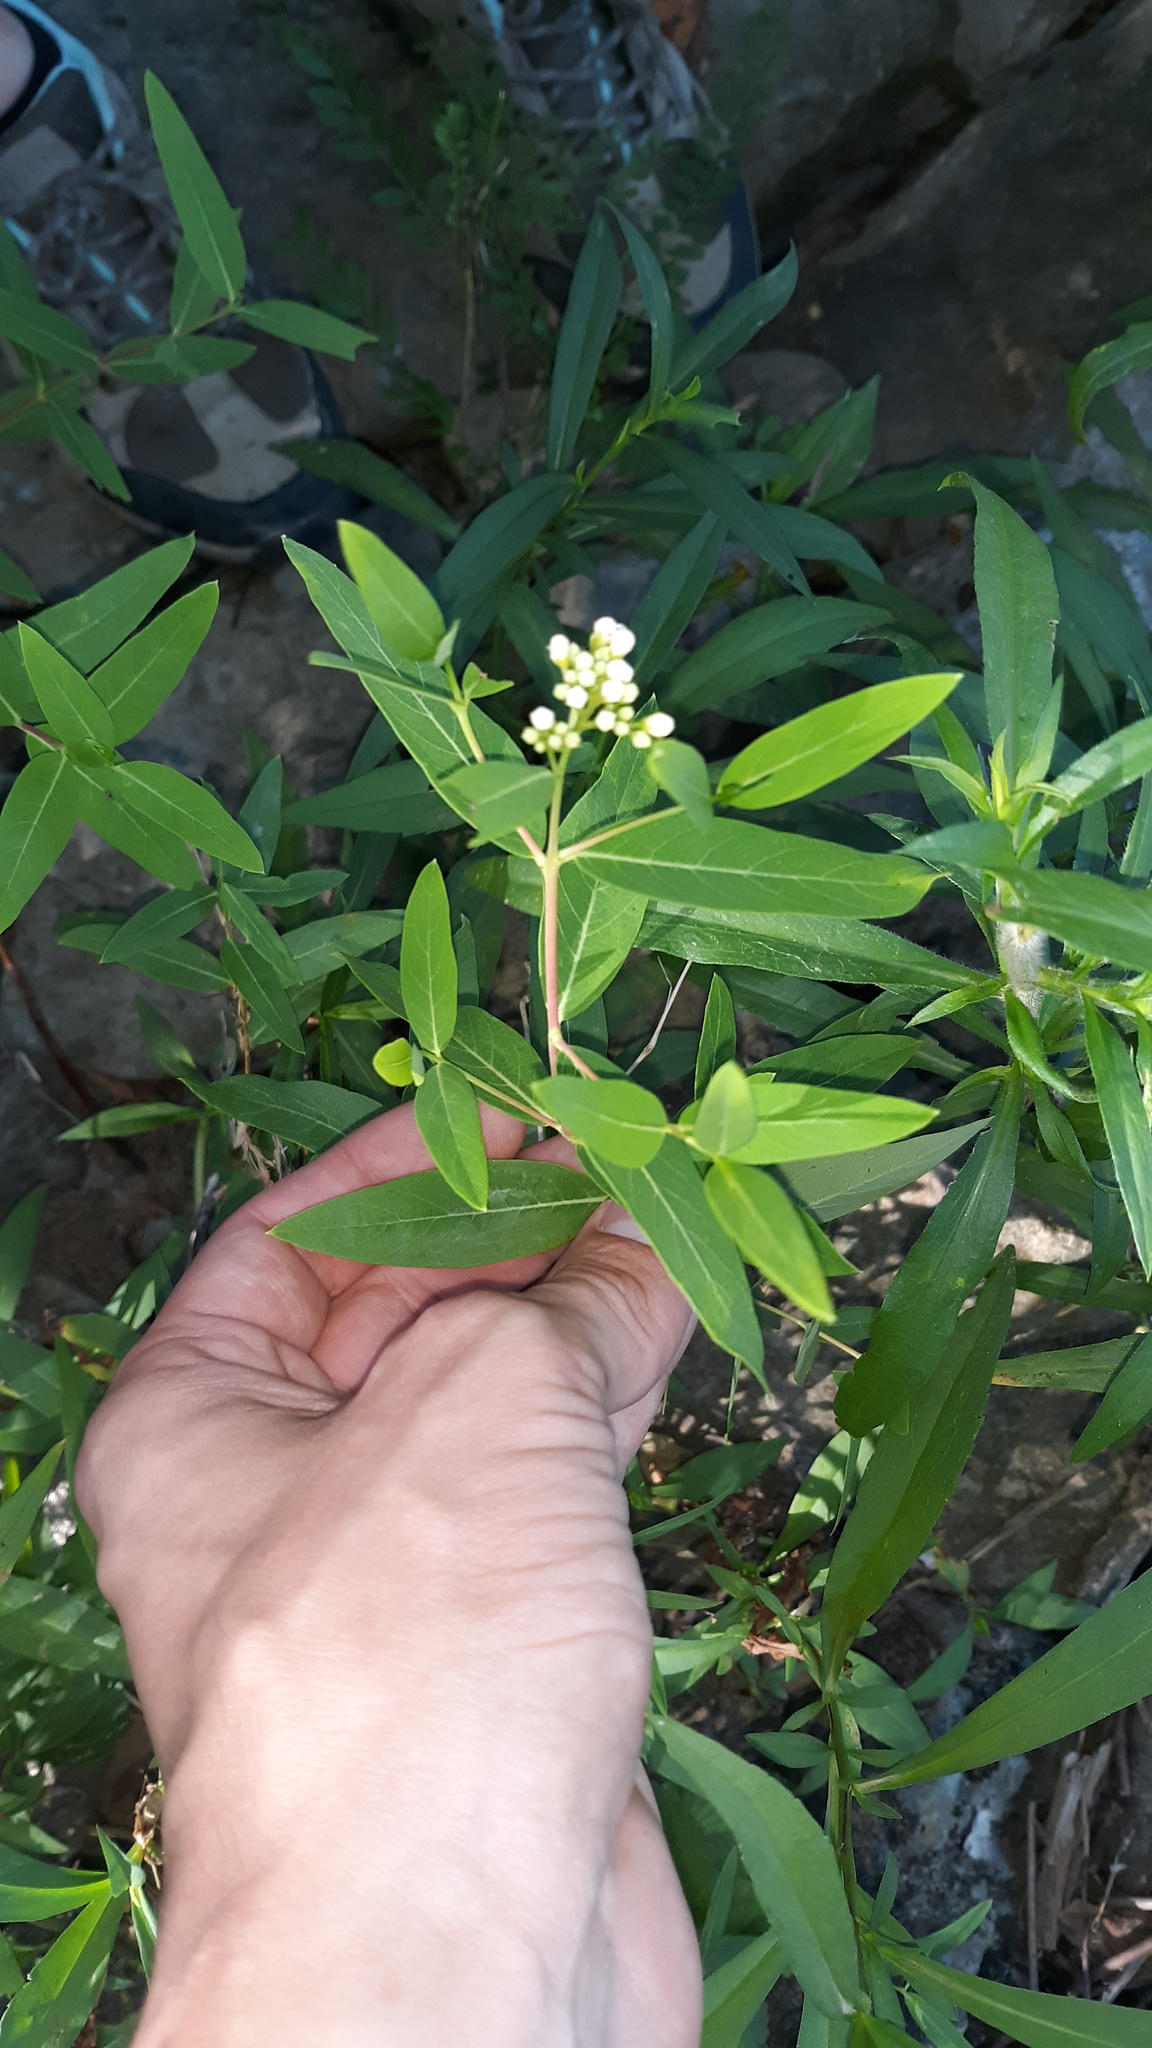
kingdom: Plantae
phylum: Tracheophyta
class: Magnoliopsida
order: Gentianales
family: Apocynaceae
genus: Apocynum
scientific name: Apocynum cannabinum
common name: Hemp dogbane
